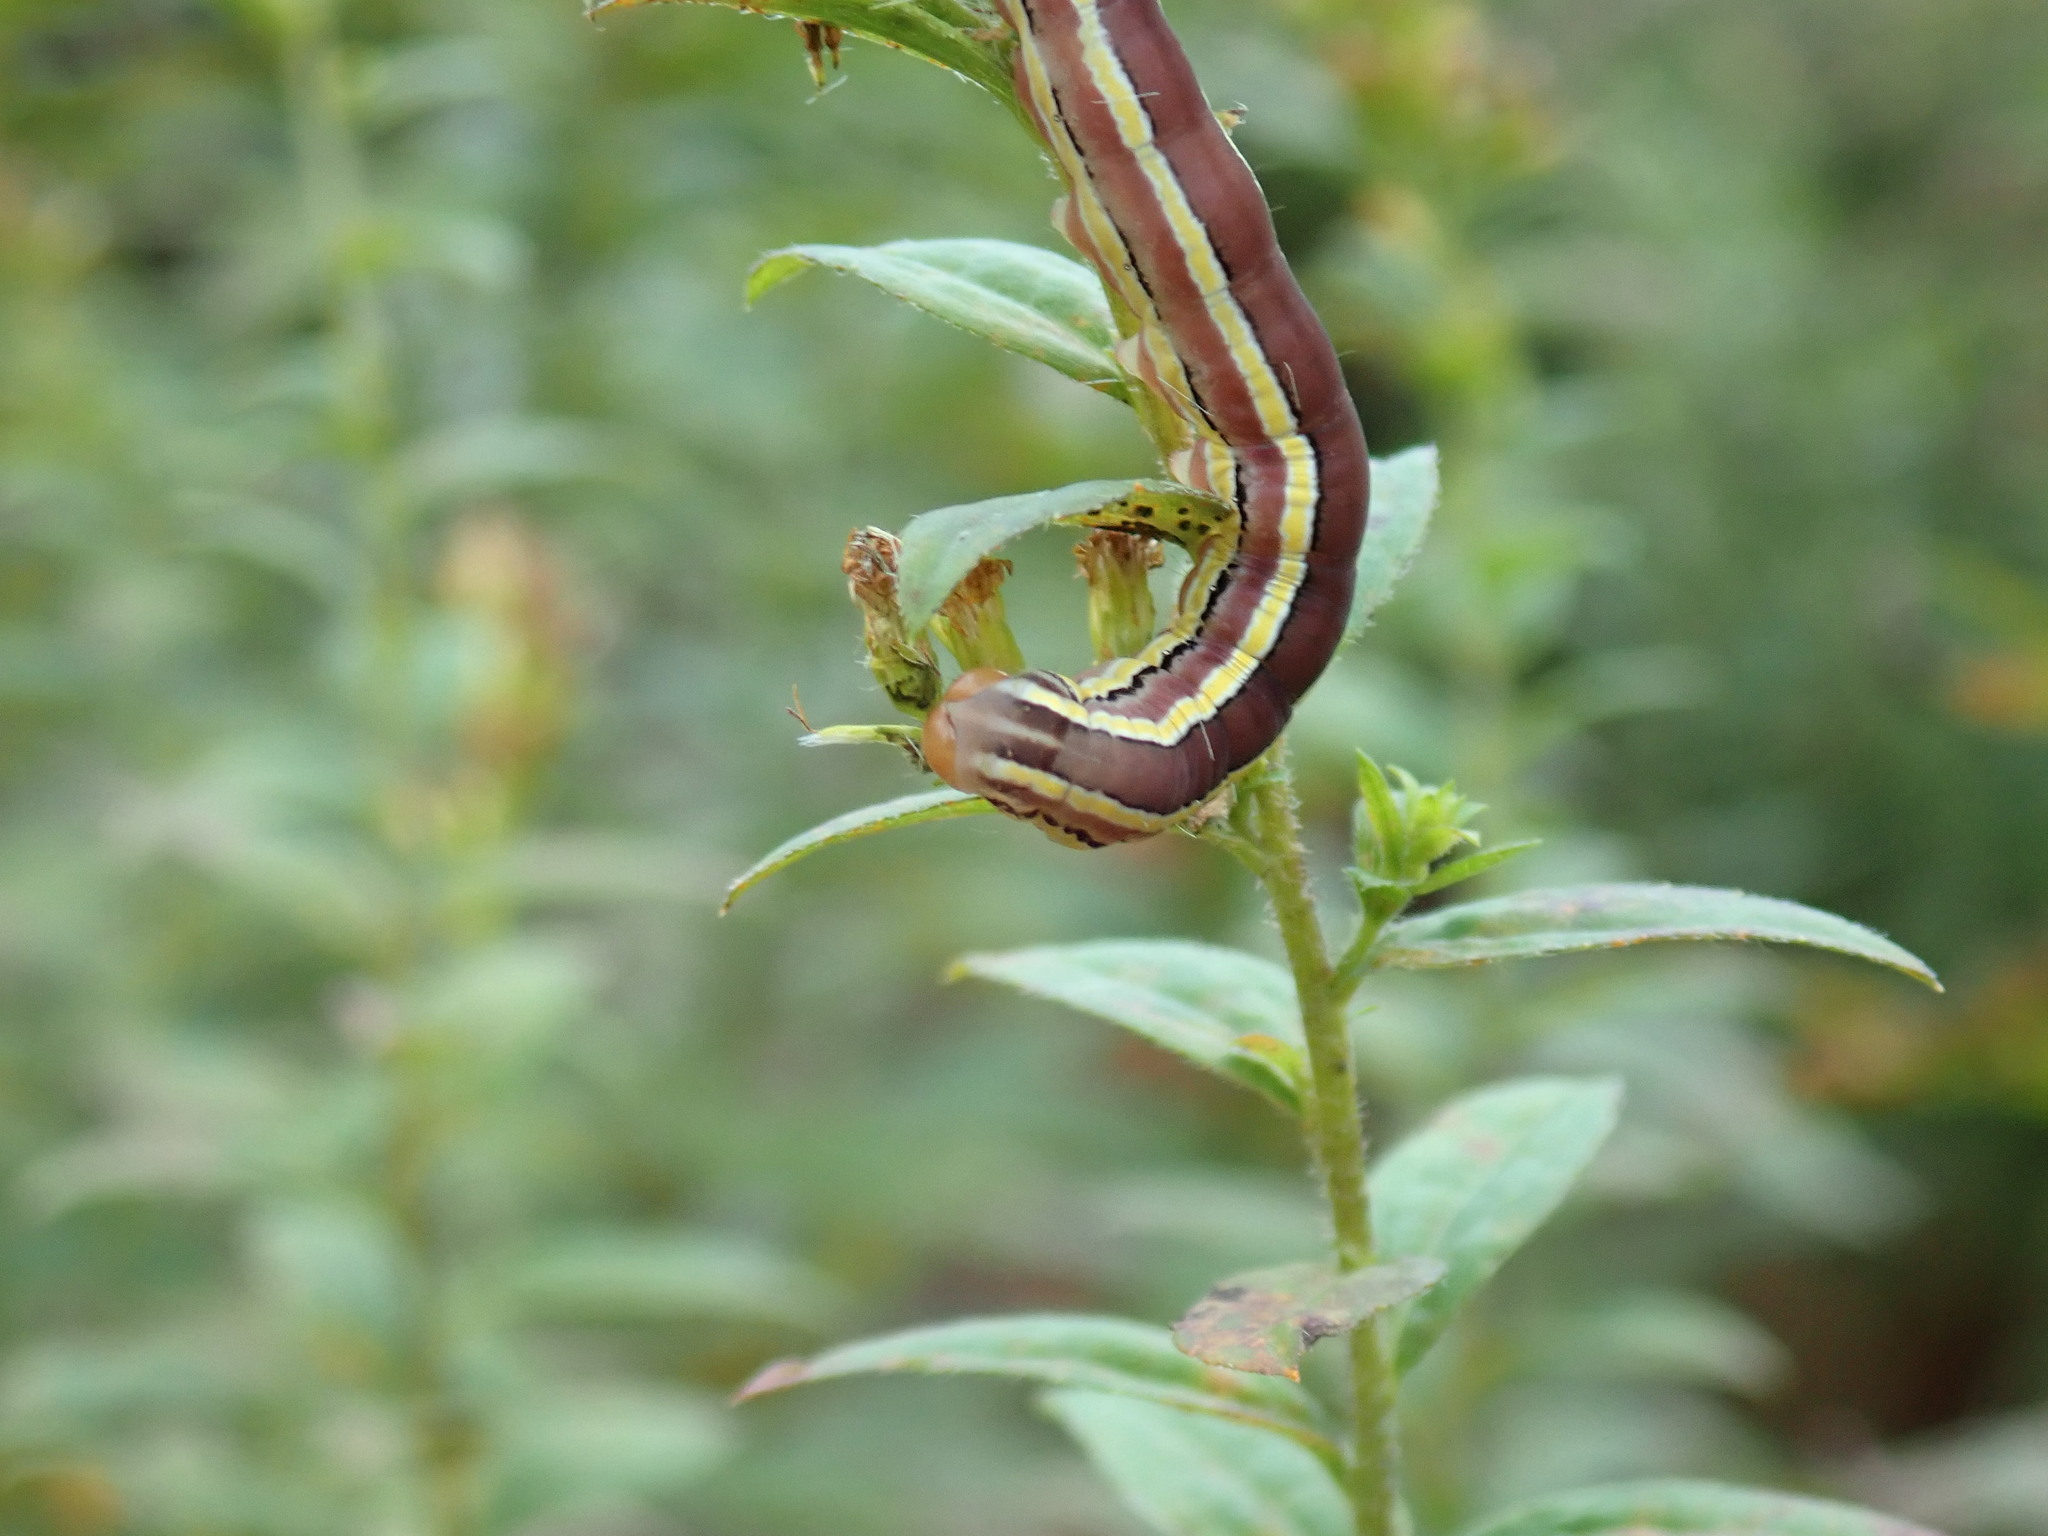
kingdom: Animalia
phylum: Arthropoda
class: Insecta
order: Lepidoptera
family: Noctuidae
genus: Trichordestra
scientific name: Trichordestra legitima
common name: Striped garden caterpillar
